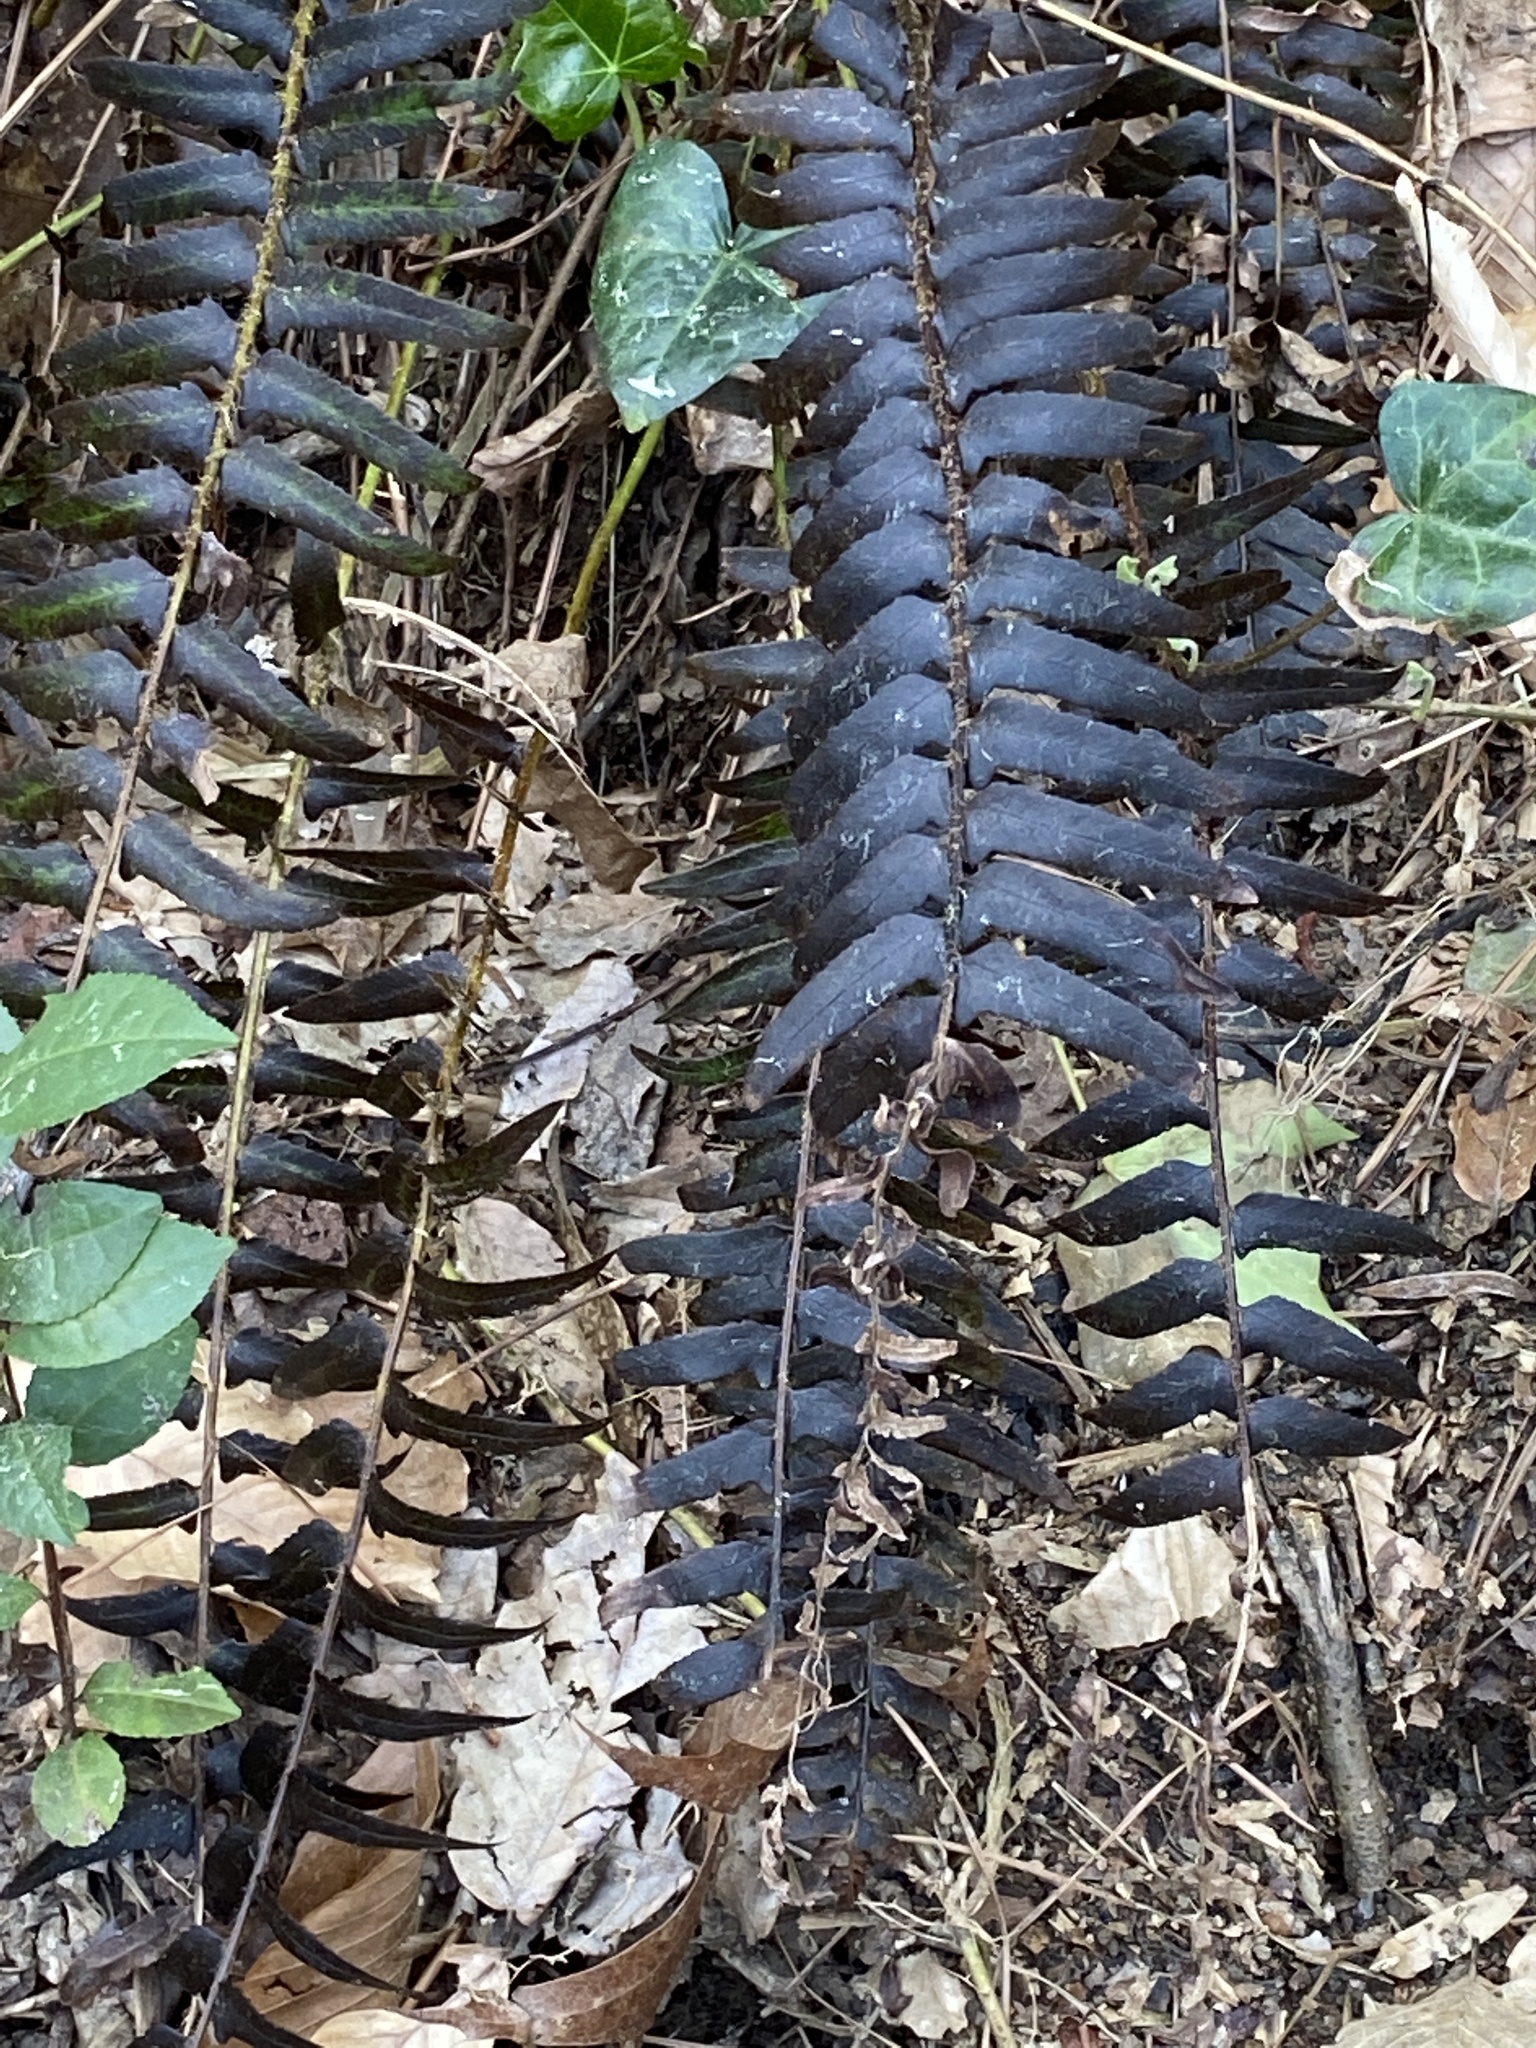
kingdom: Plantae
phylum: Tracheophyta
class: Polypodiopsida
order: Polypodiales
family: Dryopteridaceae
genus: Polystichum
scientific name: Polystichum acrostichoides
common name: Christmas fern
